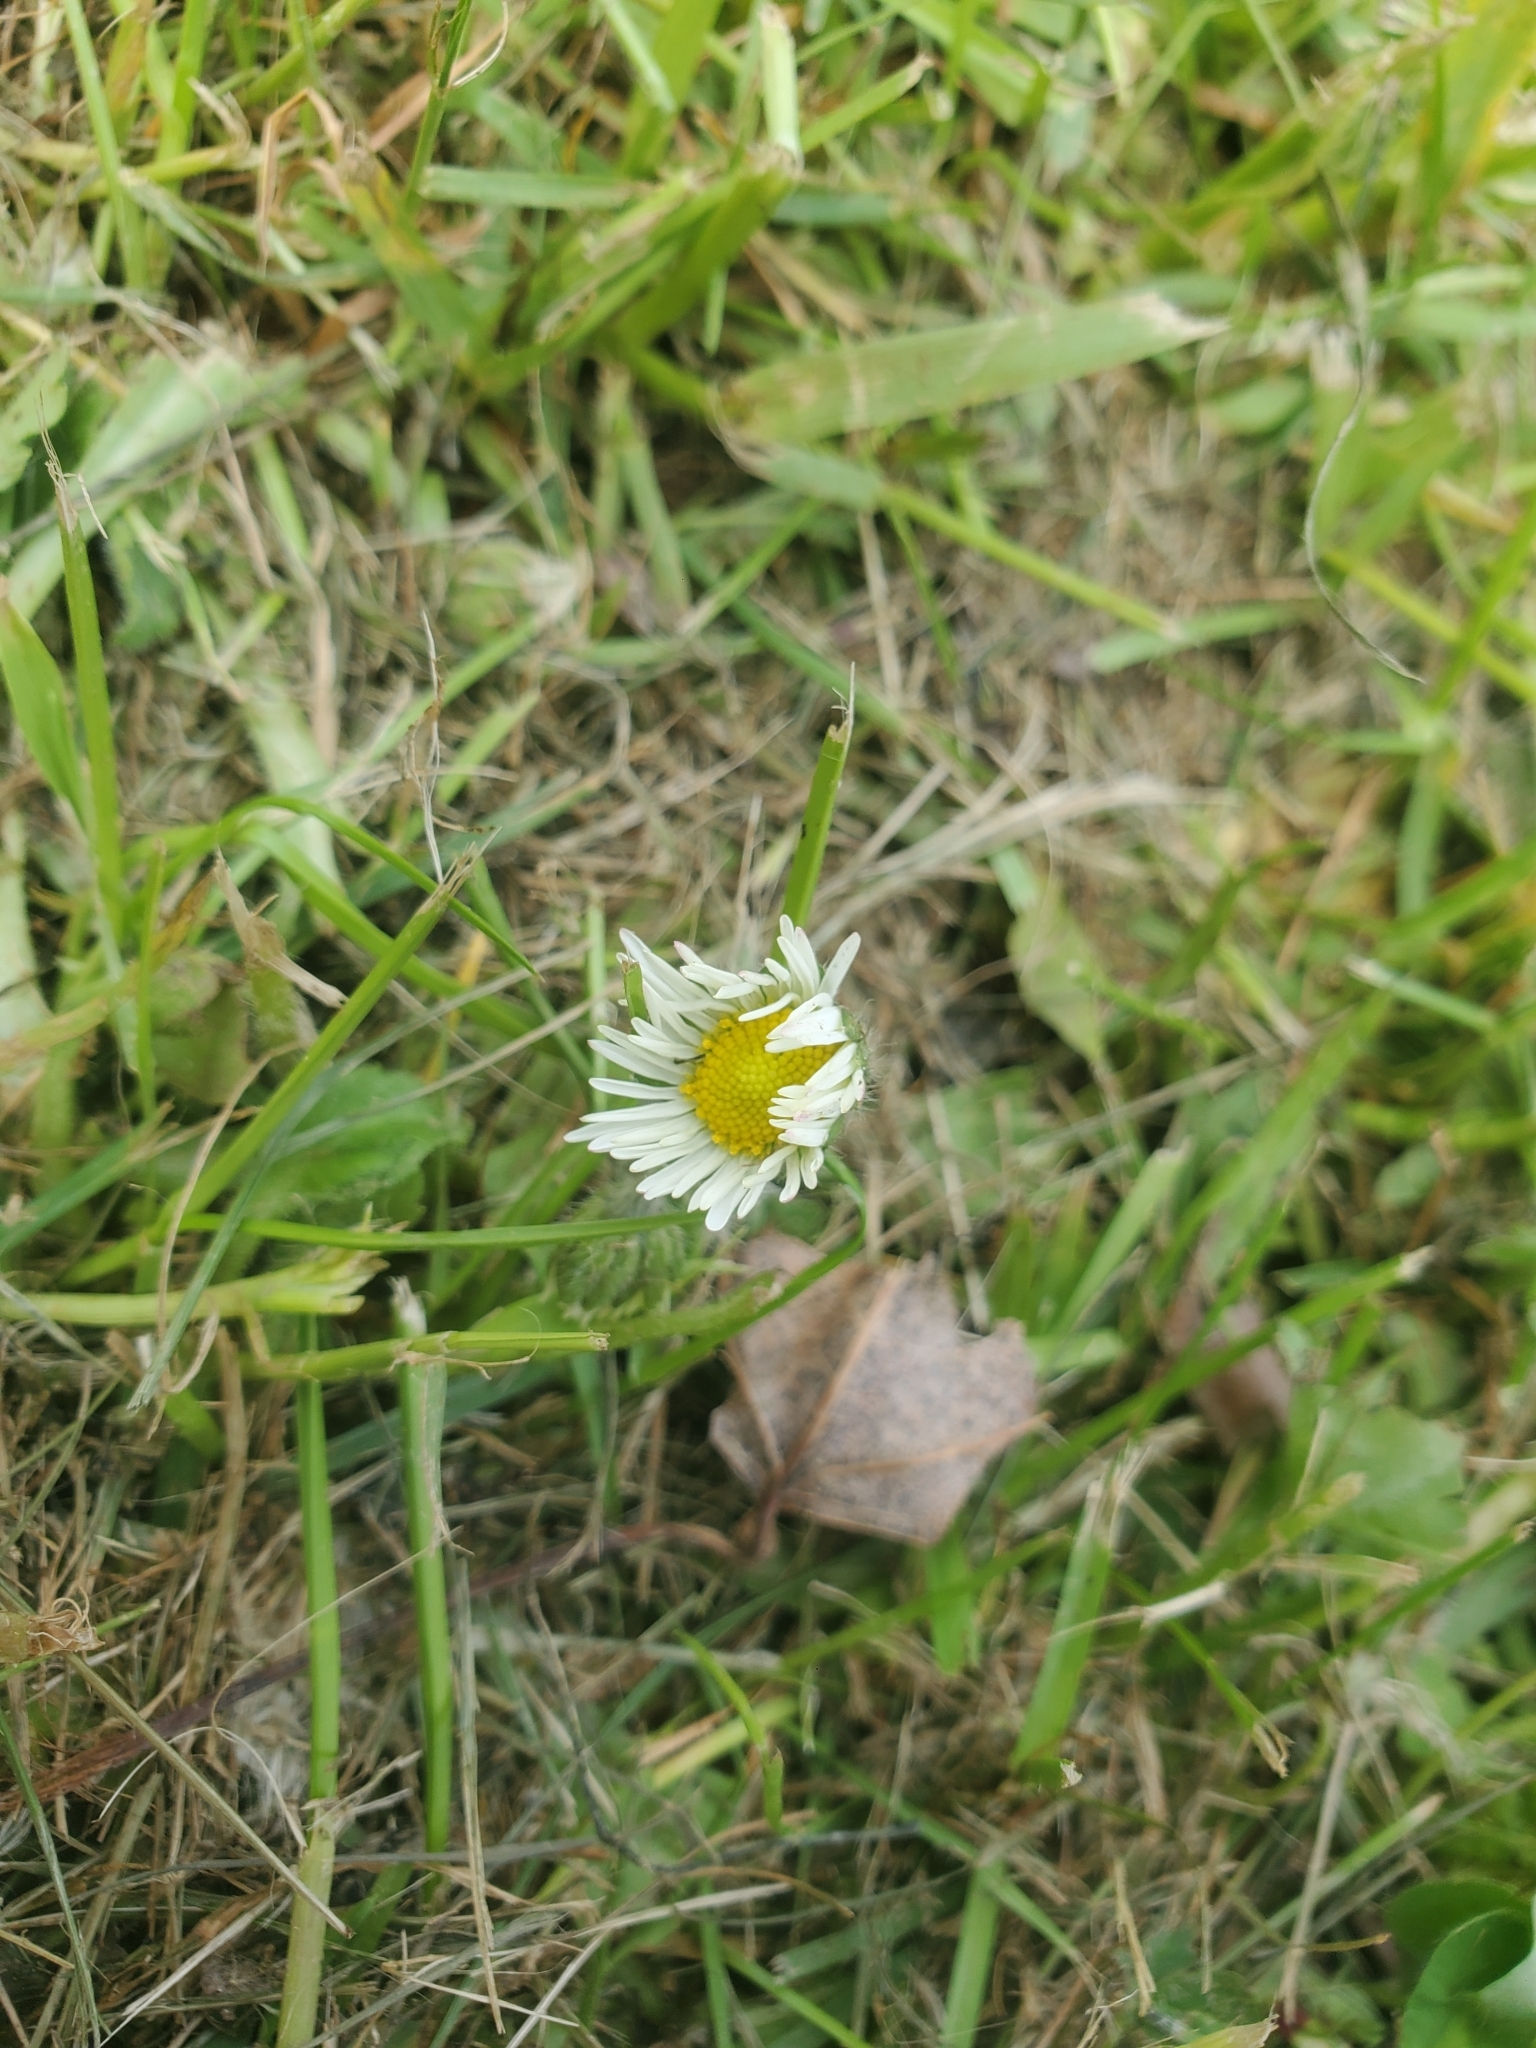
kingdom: Plantae
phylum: Tracheophyta
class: Magnoliopsida
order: Asterales
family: Asteraceae
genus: Leucanthemum
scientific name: Leucanthemum vulgare
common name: Oxeye daisy
